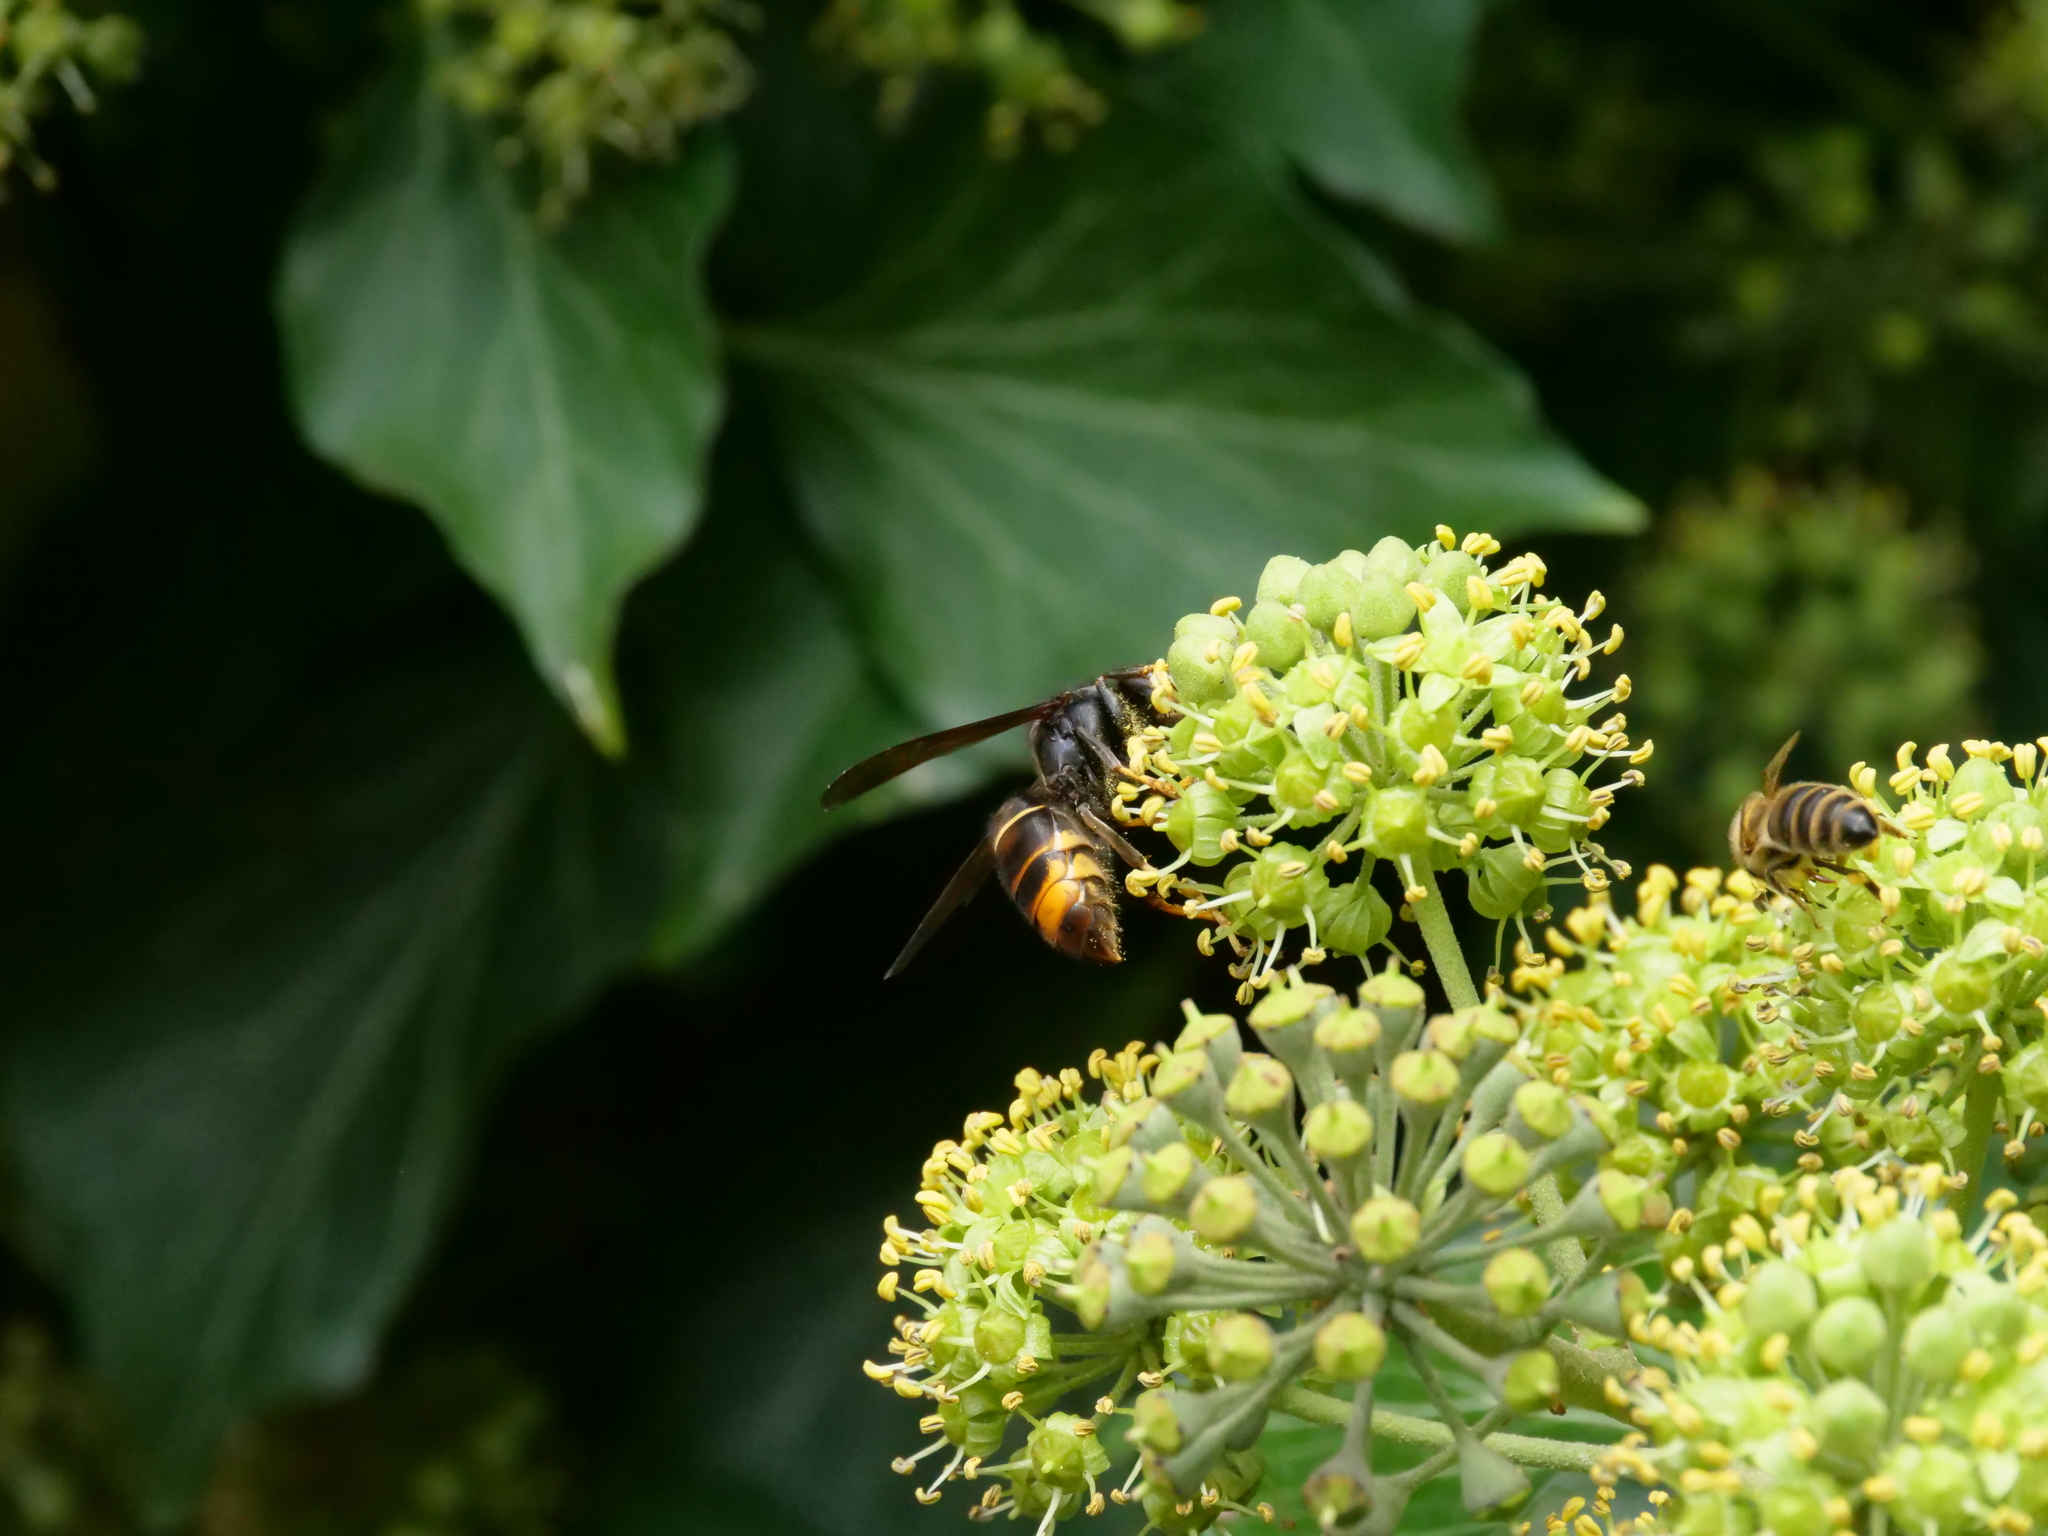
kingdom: Animalia
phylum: Arthropoda
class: Insecta
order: Hymenoptera
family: Vespidae
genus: Vespa
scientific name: Vespa velutina
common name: Asian hornet
